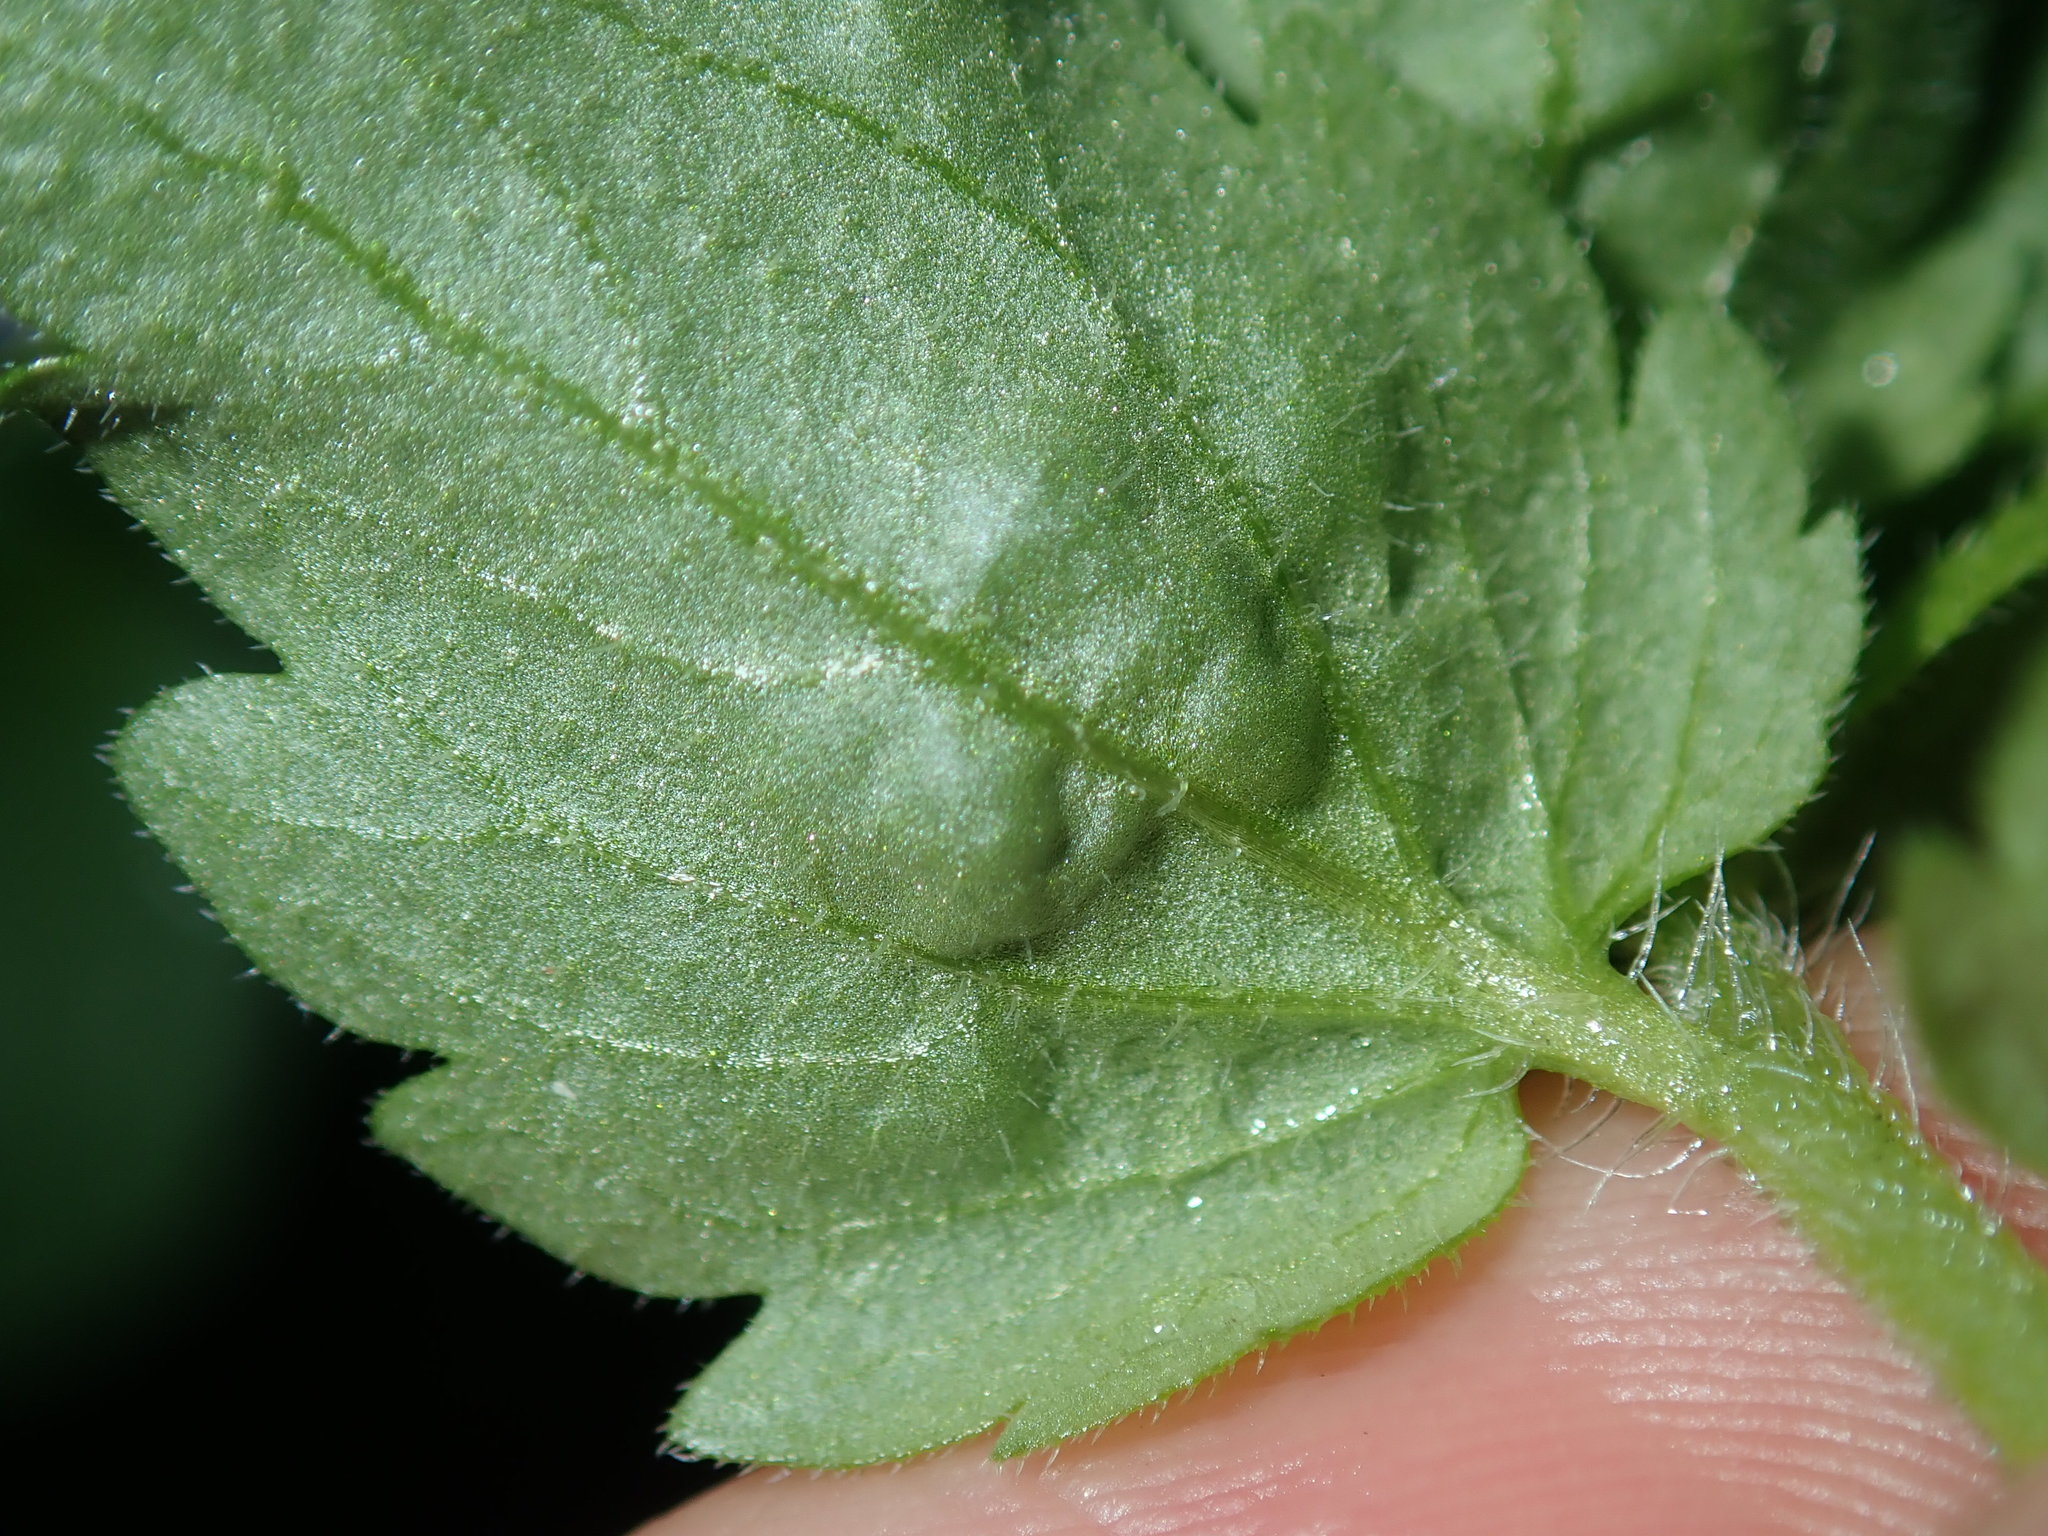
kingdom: Plantae
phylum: Tracheophyta
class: Magnoliopsida
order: Lamiales
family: Plantaginaceae
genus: Veronica
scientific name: Veronica persica
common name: Common field-speedwell
